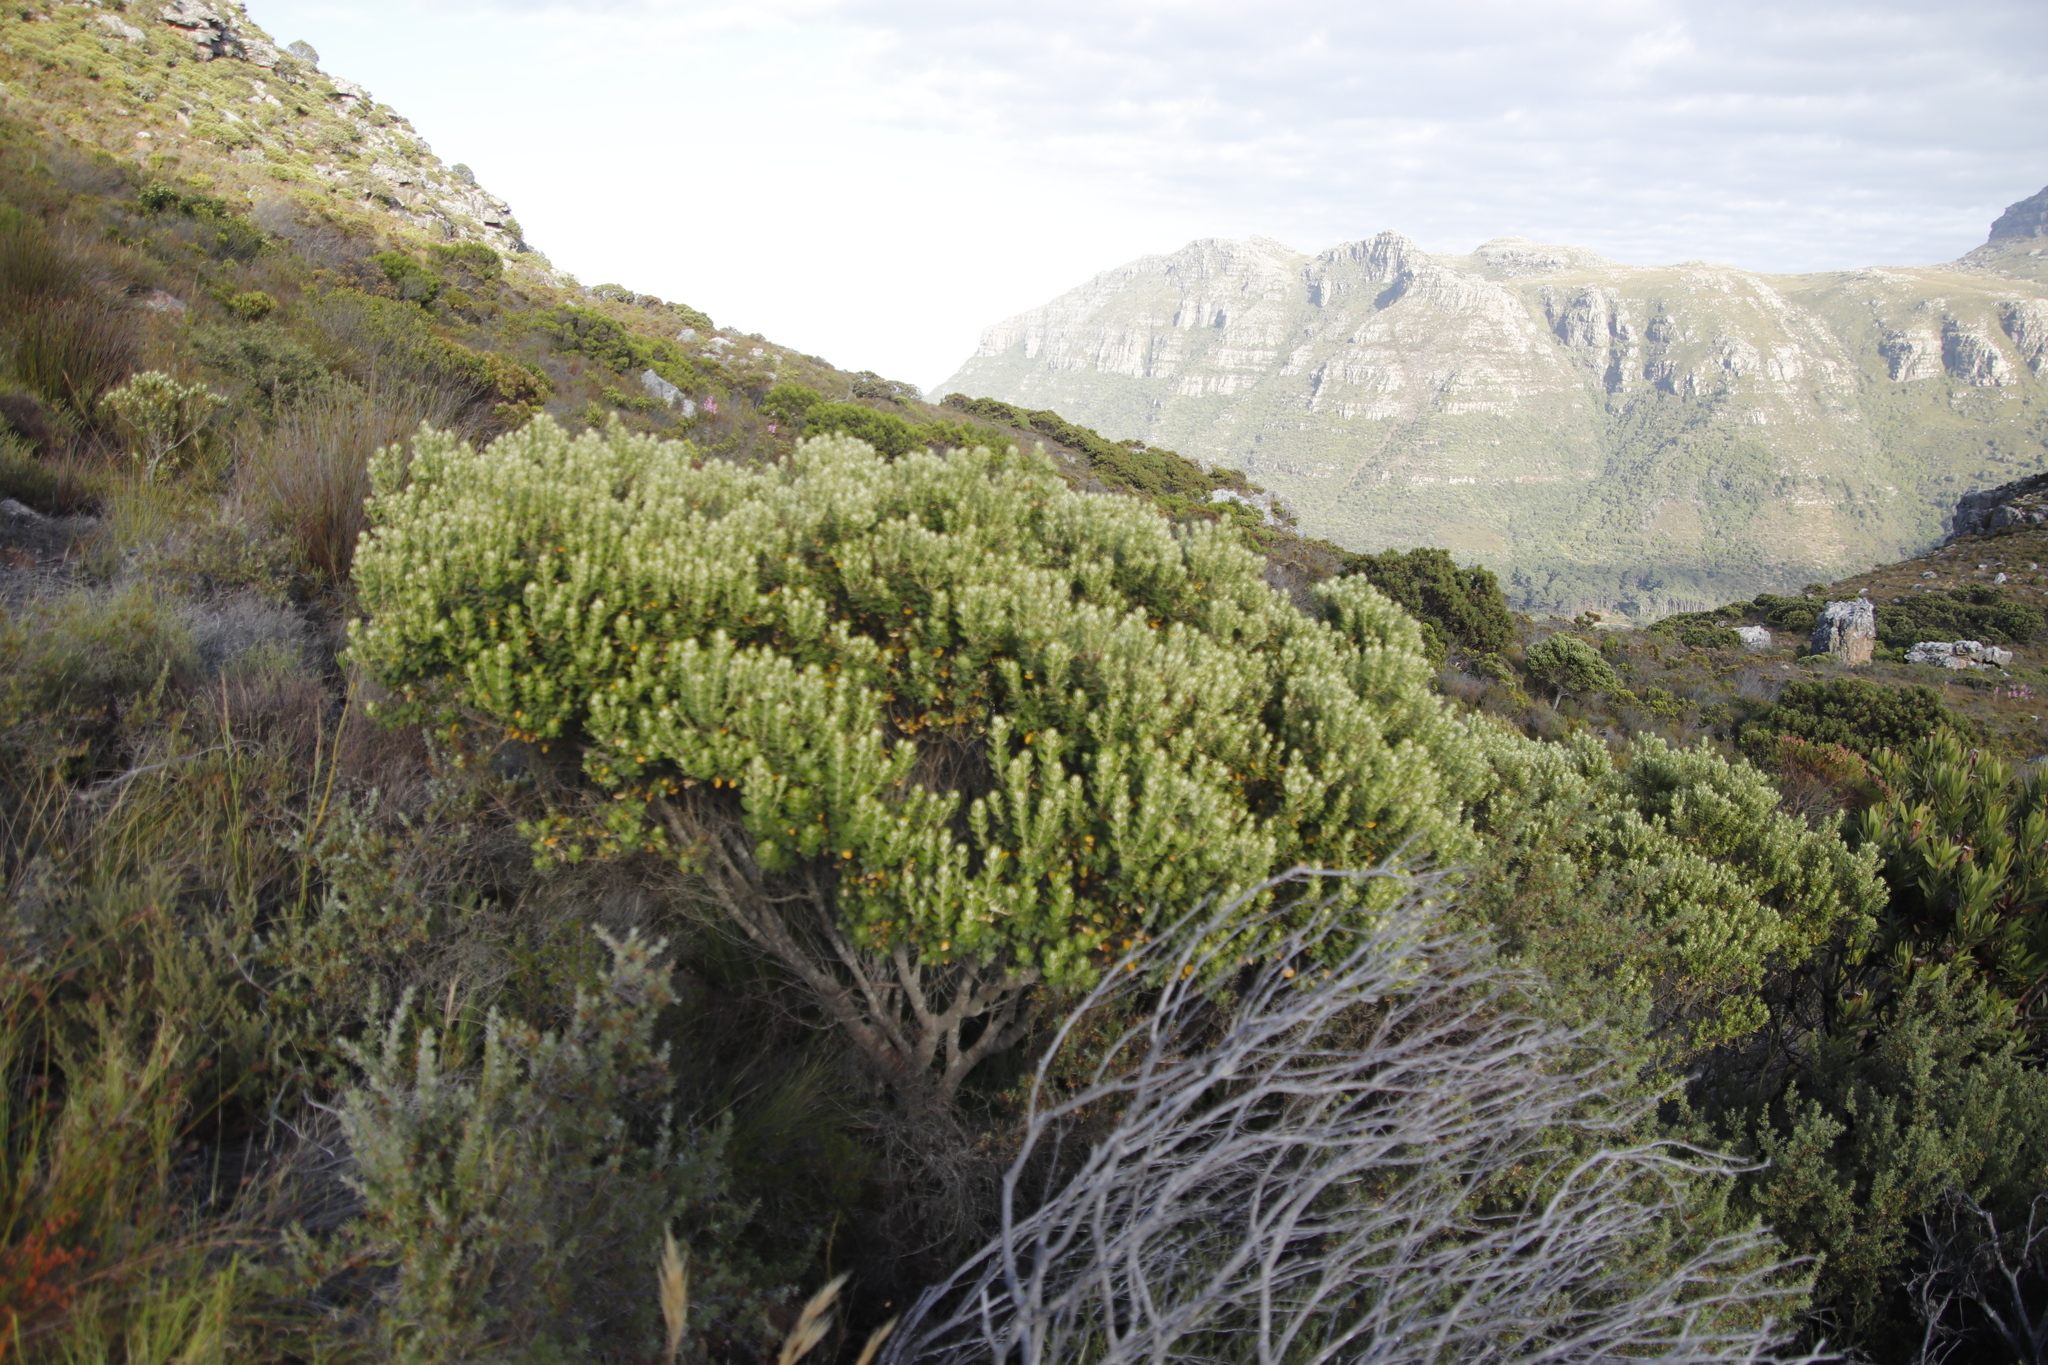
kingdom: Plantae
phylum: Tracheophyta
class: Magnoliopsida
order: Rosales
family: Rhamnaceae
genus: Phylica
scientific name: Phylica buxifolia
